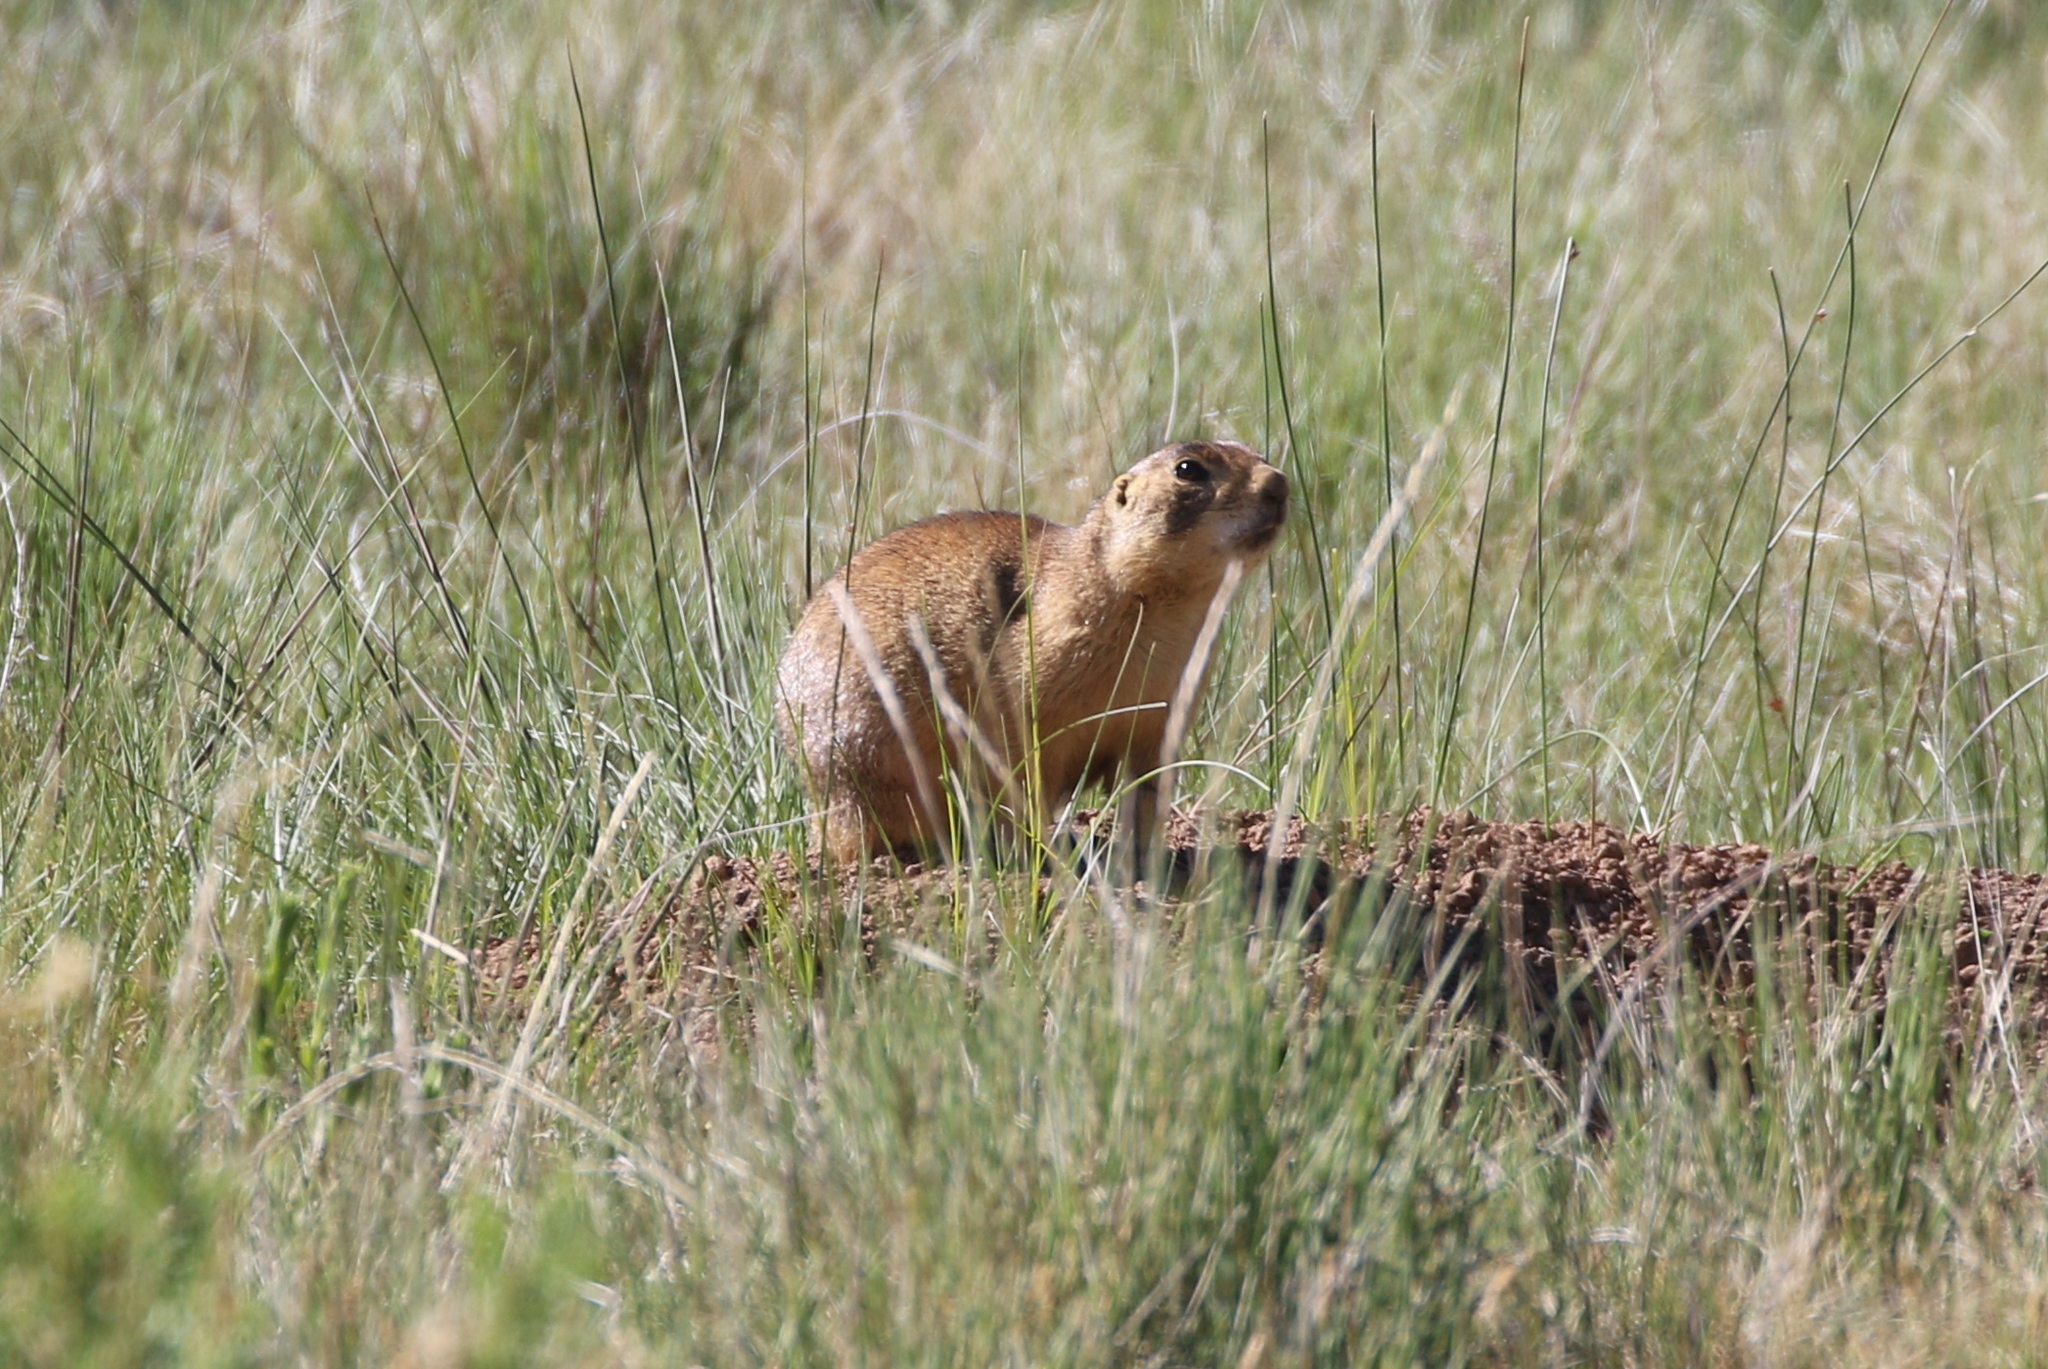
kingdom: Animalia
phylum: Chordata
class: Mammalia
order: Rodentia
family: Sciuridae
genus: Cynomys
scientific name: Cynomys parvidens
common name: Utah prairie dog
